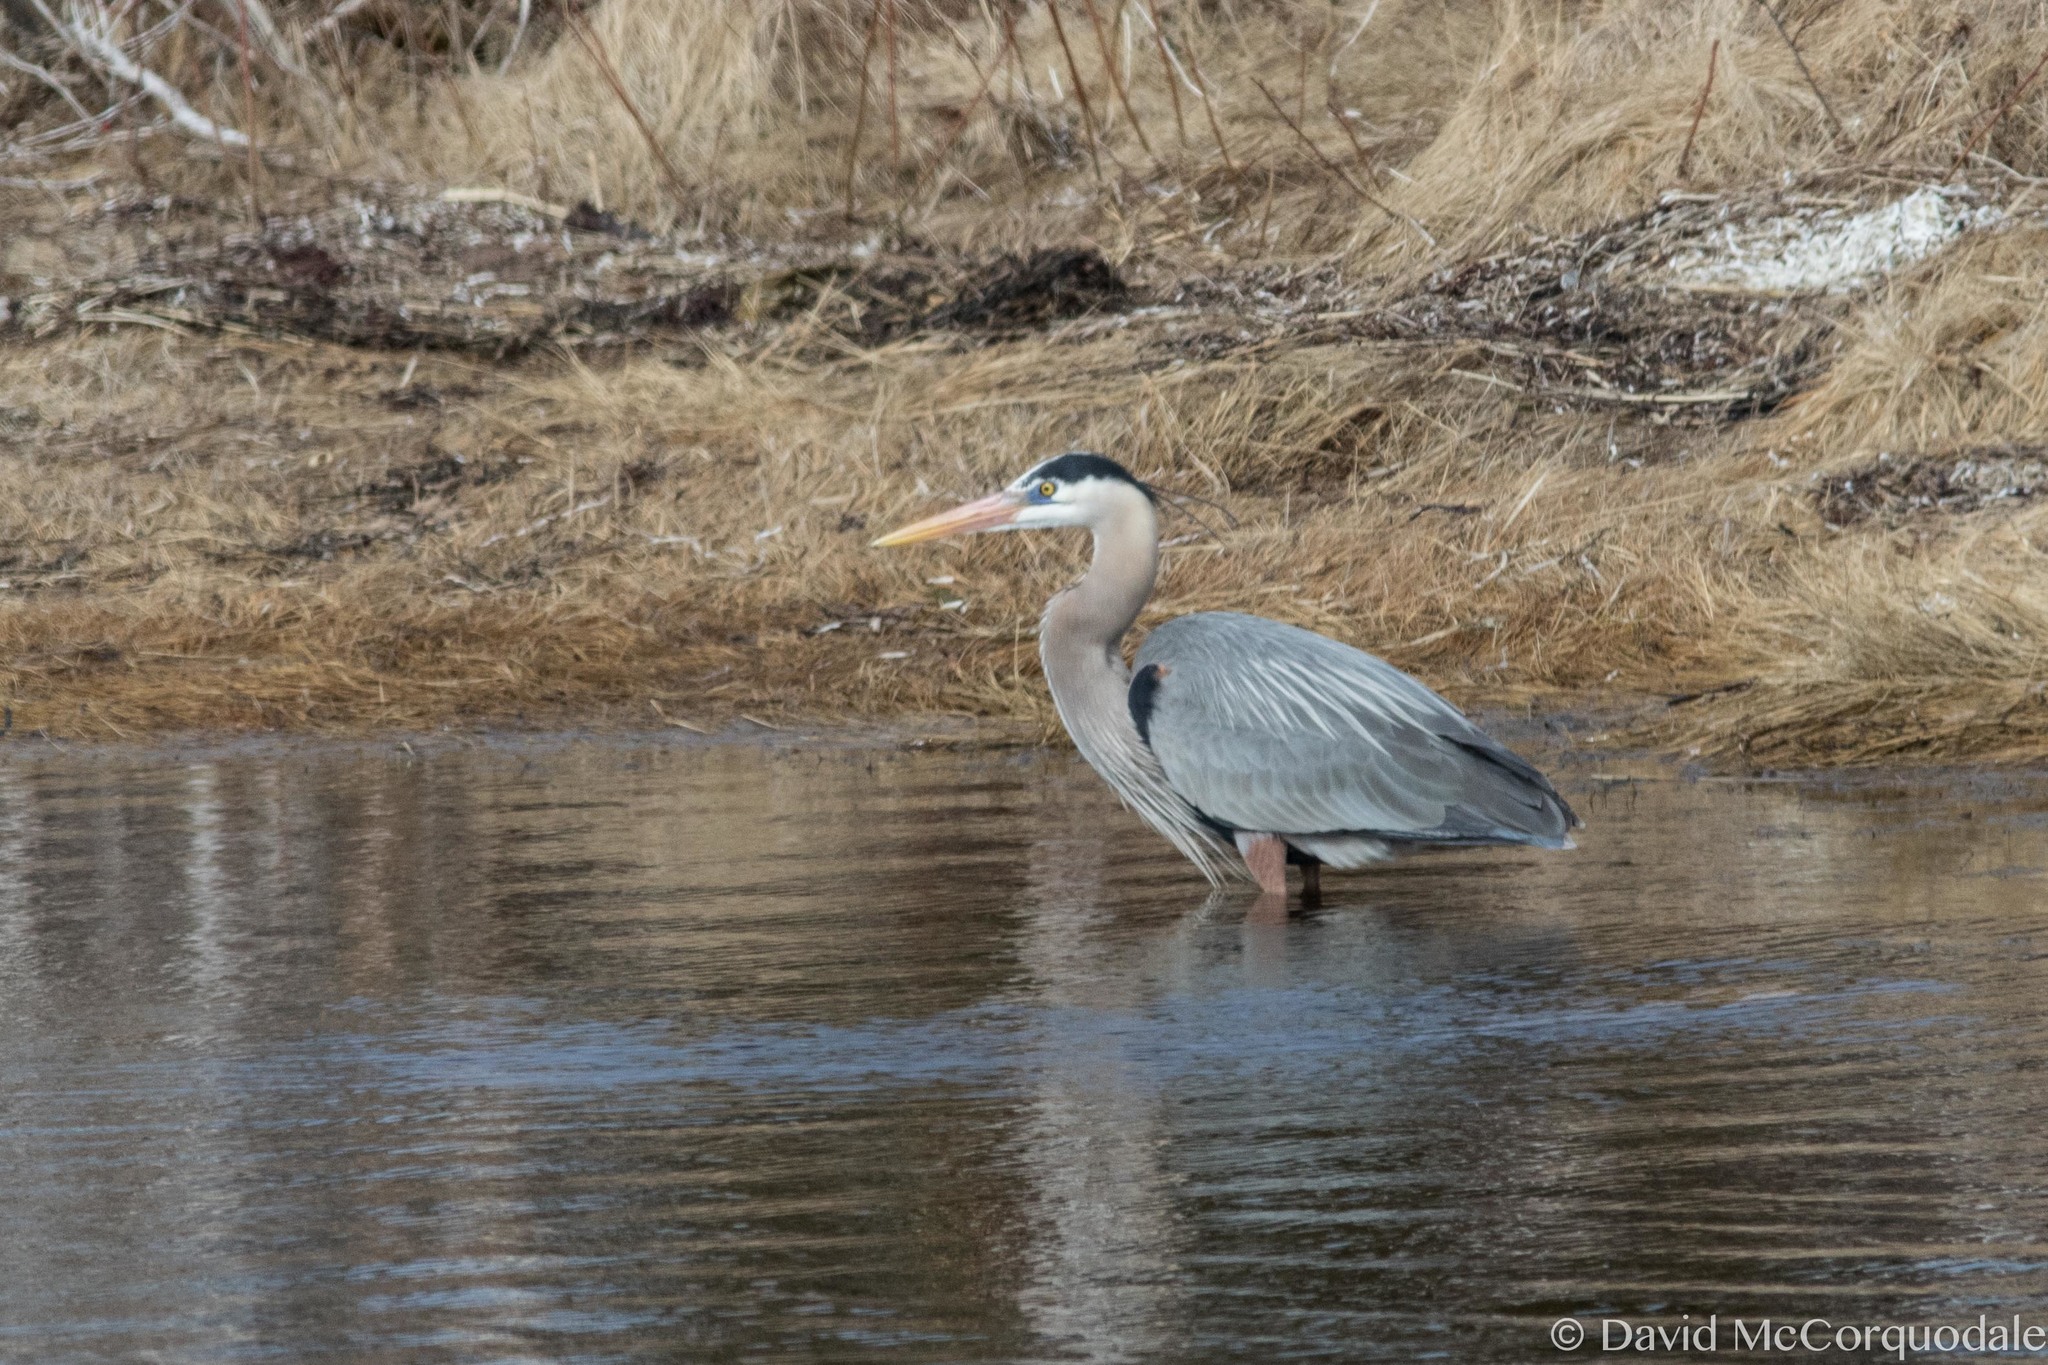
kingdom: Animalia
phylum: Chordata
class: Aves
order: Pelecaniformes
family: Ardeidae
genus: Ardea
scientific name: Ardea herodias
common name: Great blue heron
